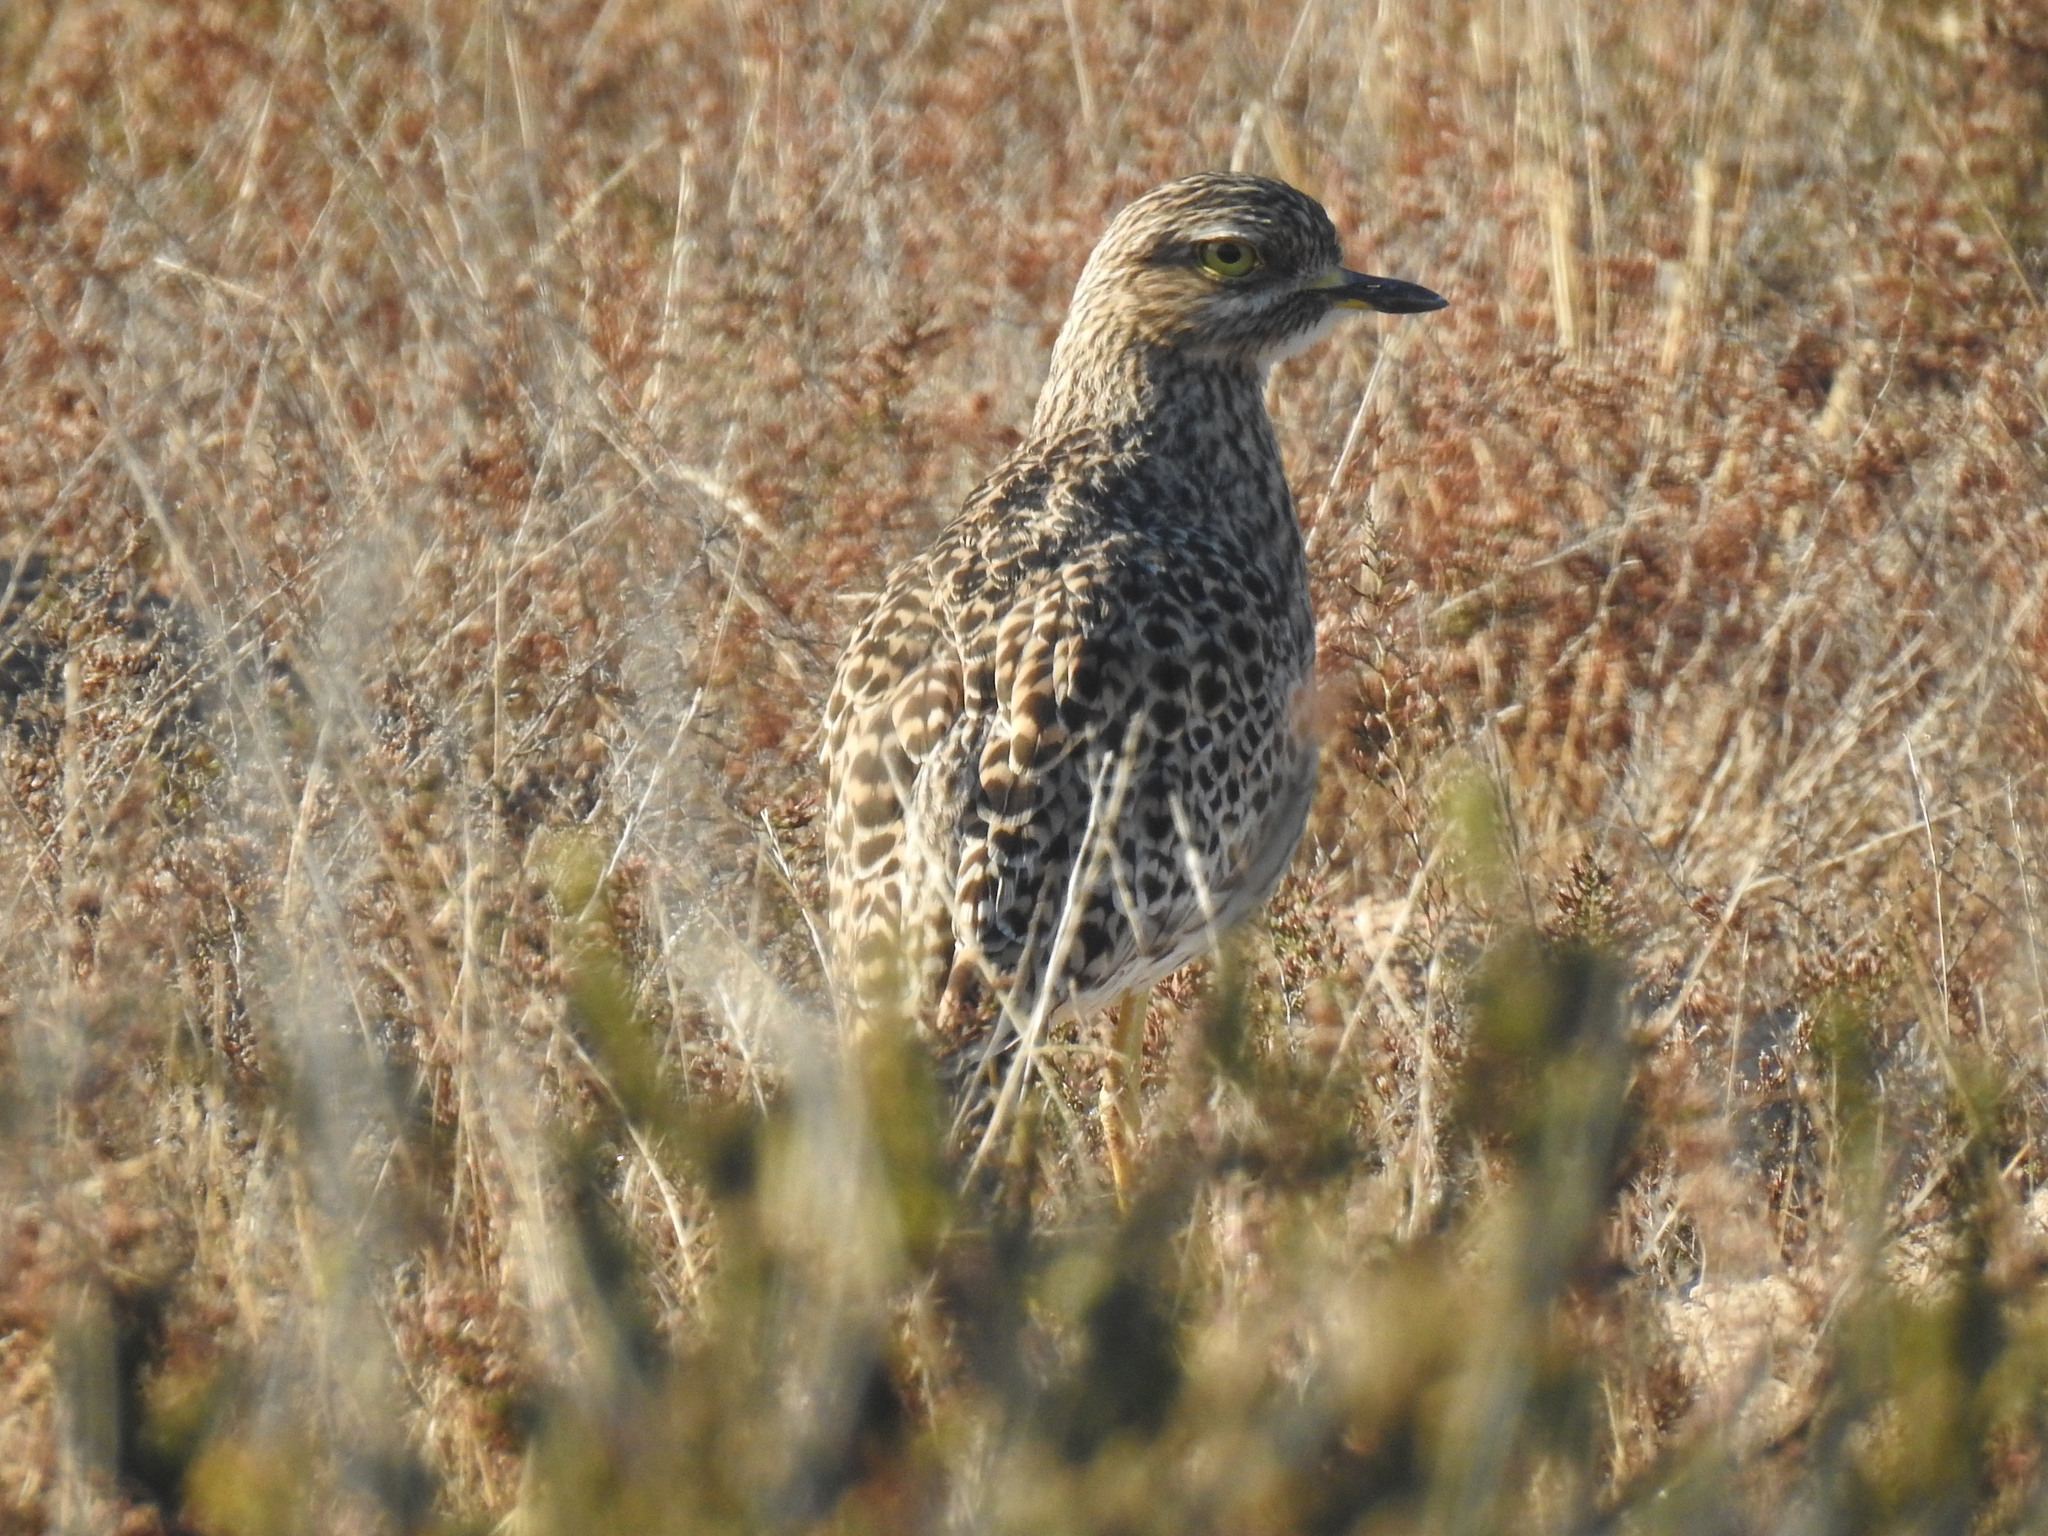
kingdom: Animalia
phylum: Chordata
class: Aves
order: Charadriiformes
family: Burhinidae
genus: Burhinus
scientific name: Burhinus capensis
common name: Spotted thick-knee
